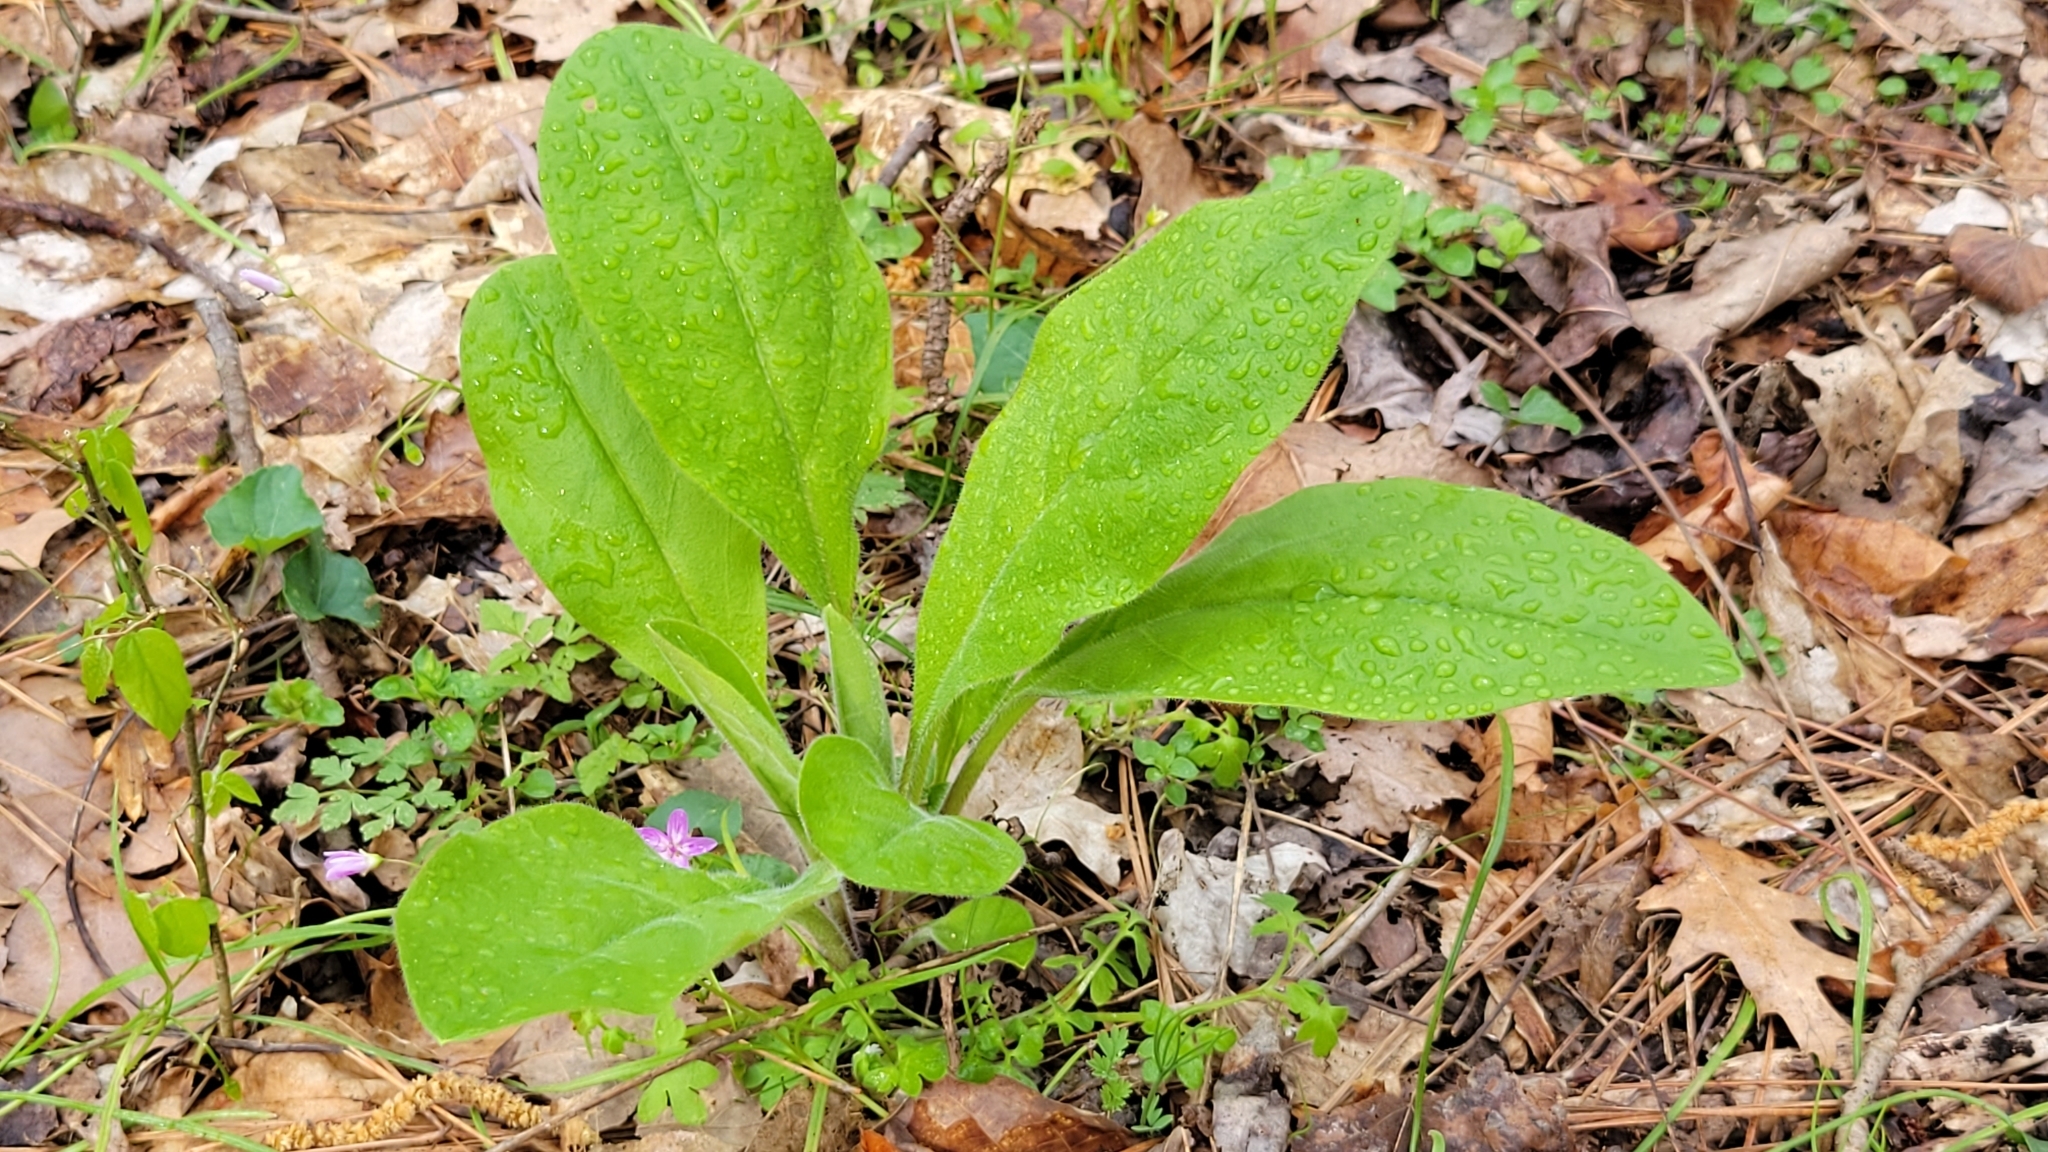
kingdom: Plantae
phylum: Tracheophyta
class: Magnoliopsida
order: Boraginales
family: Boraginaceae
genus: Andersonglossum
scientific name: Andersonglossum virginianum
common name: Wild comfrey
